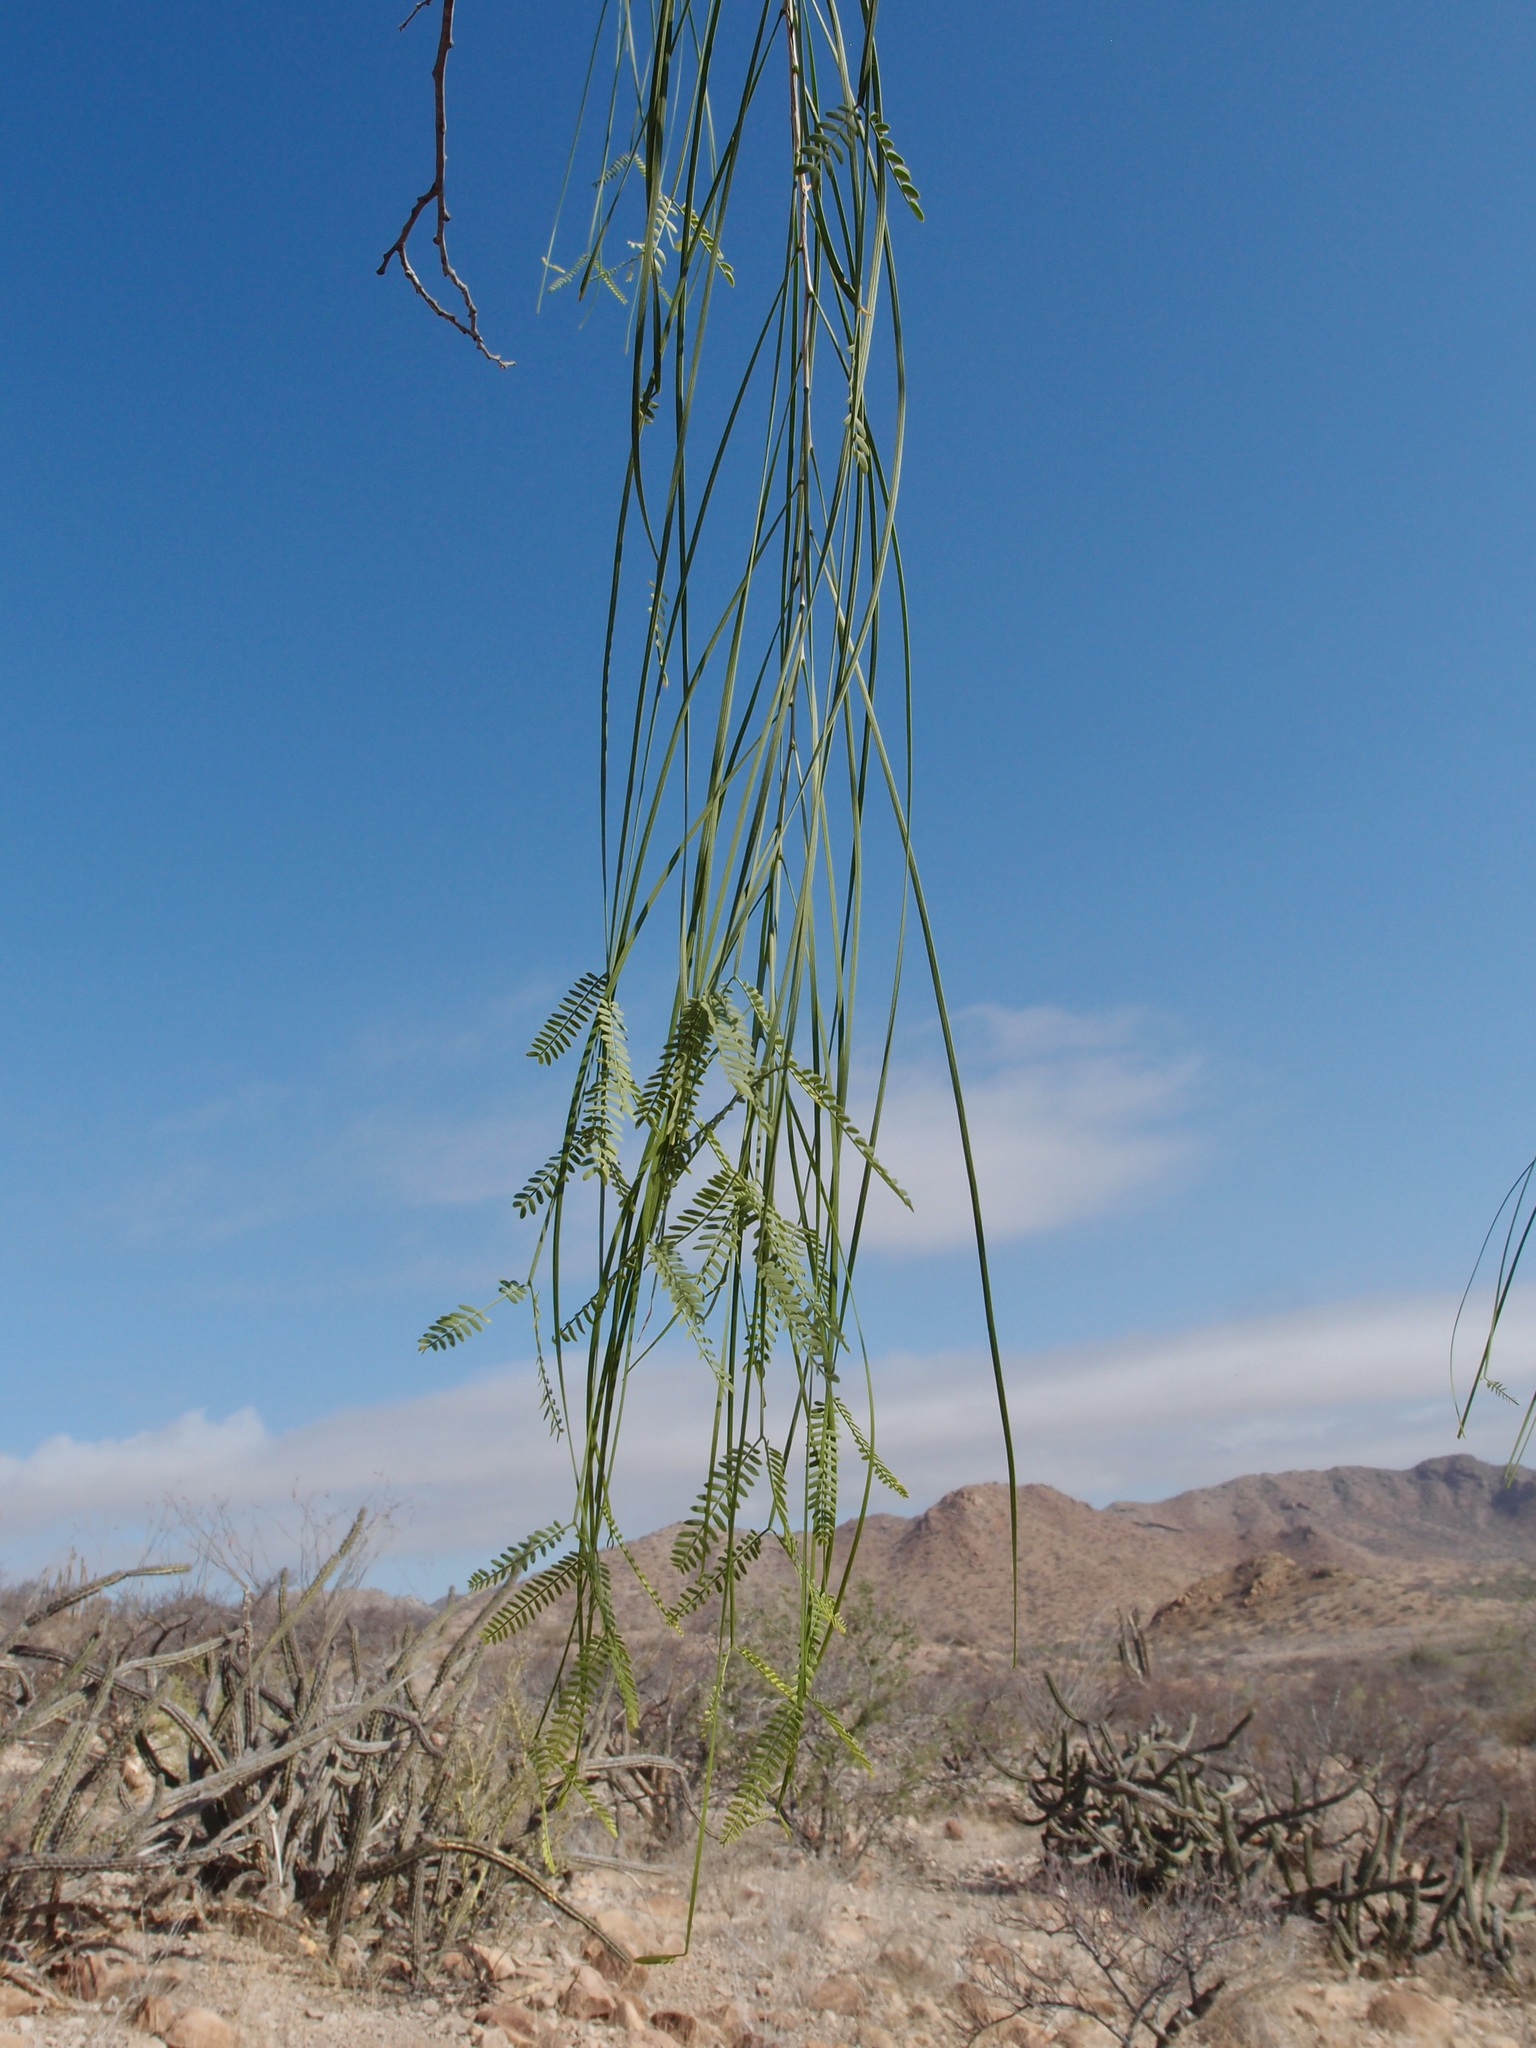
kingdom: Plantae
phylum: Tracheophyta
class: Magnoliopsida
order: Fabales
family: Fabaceae
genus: Mariosousa
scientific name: Mariosousa heterophylla
